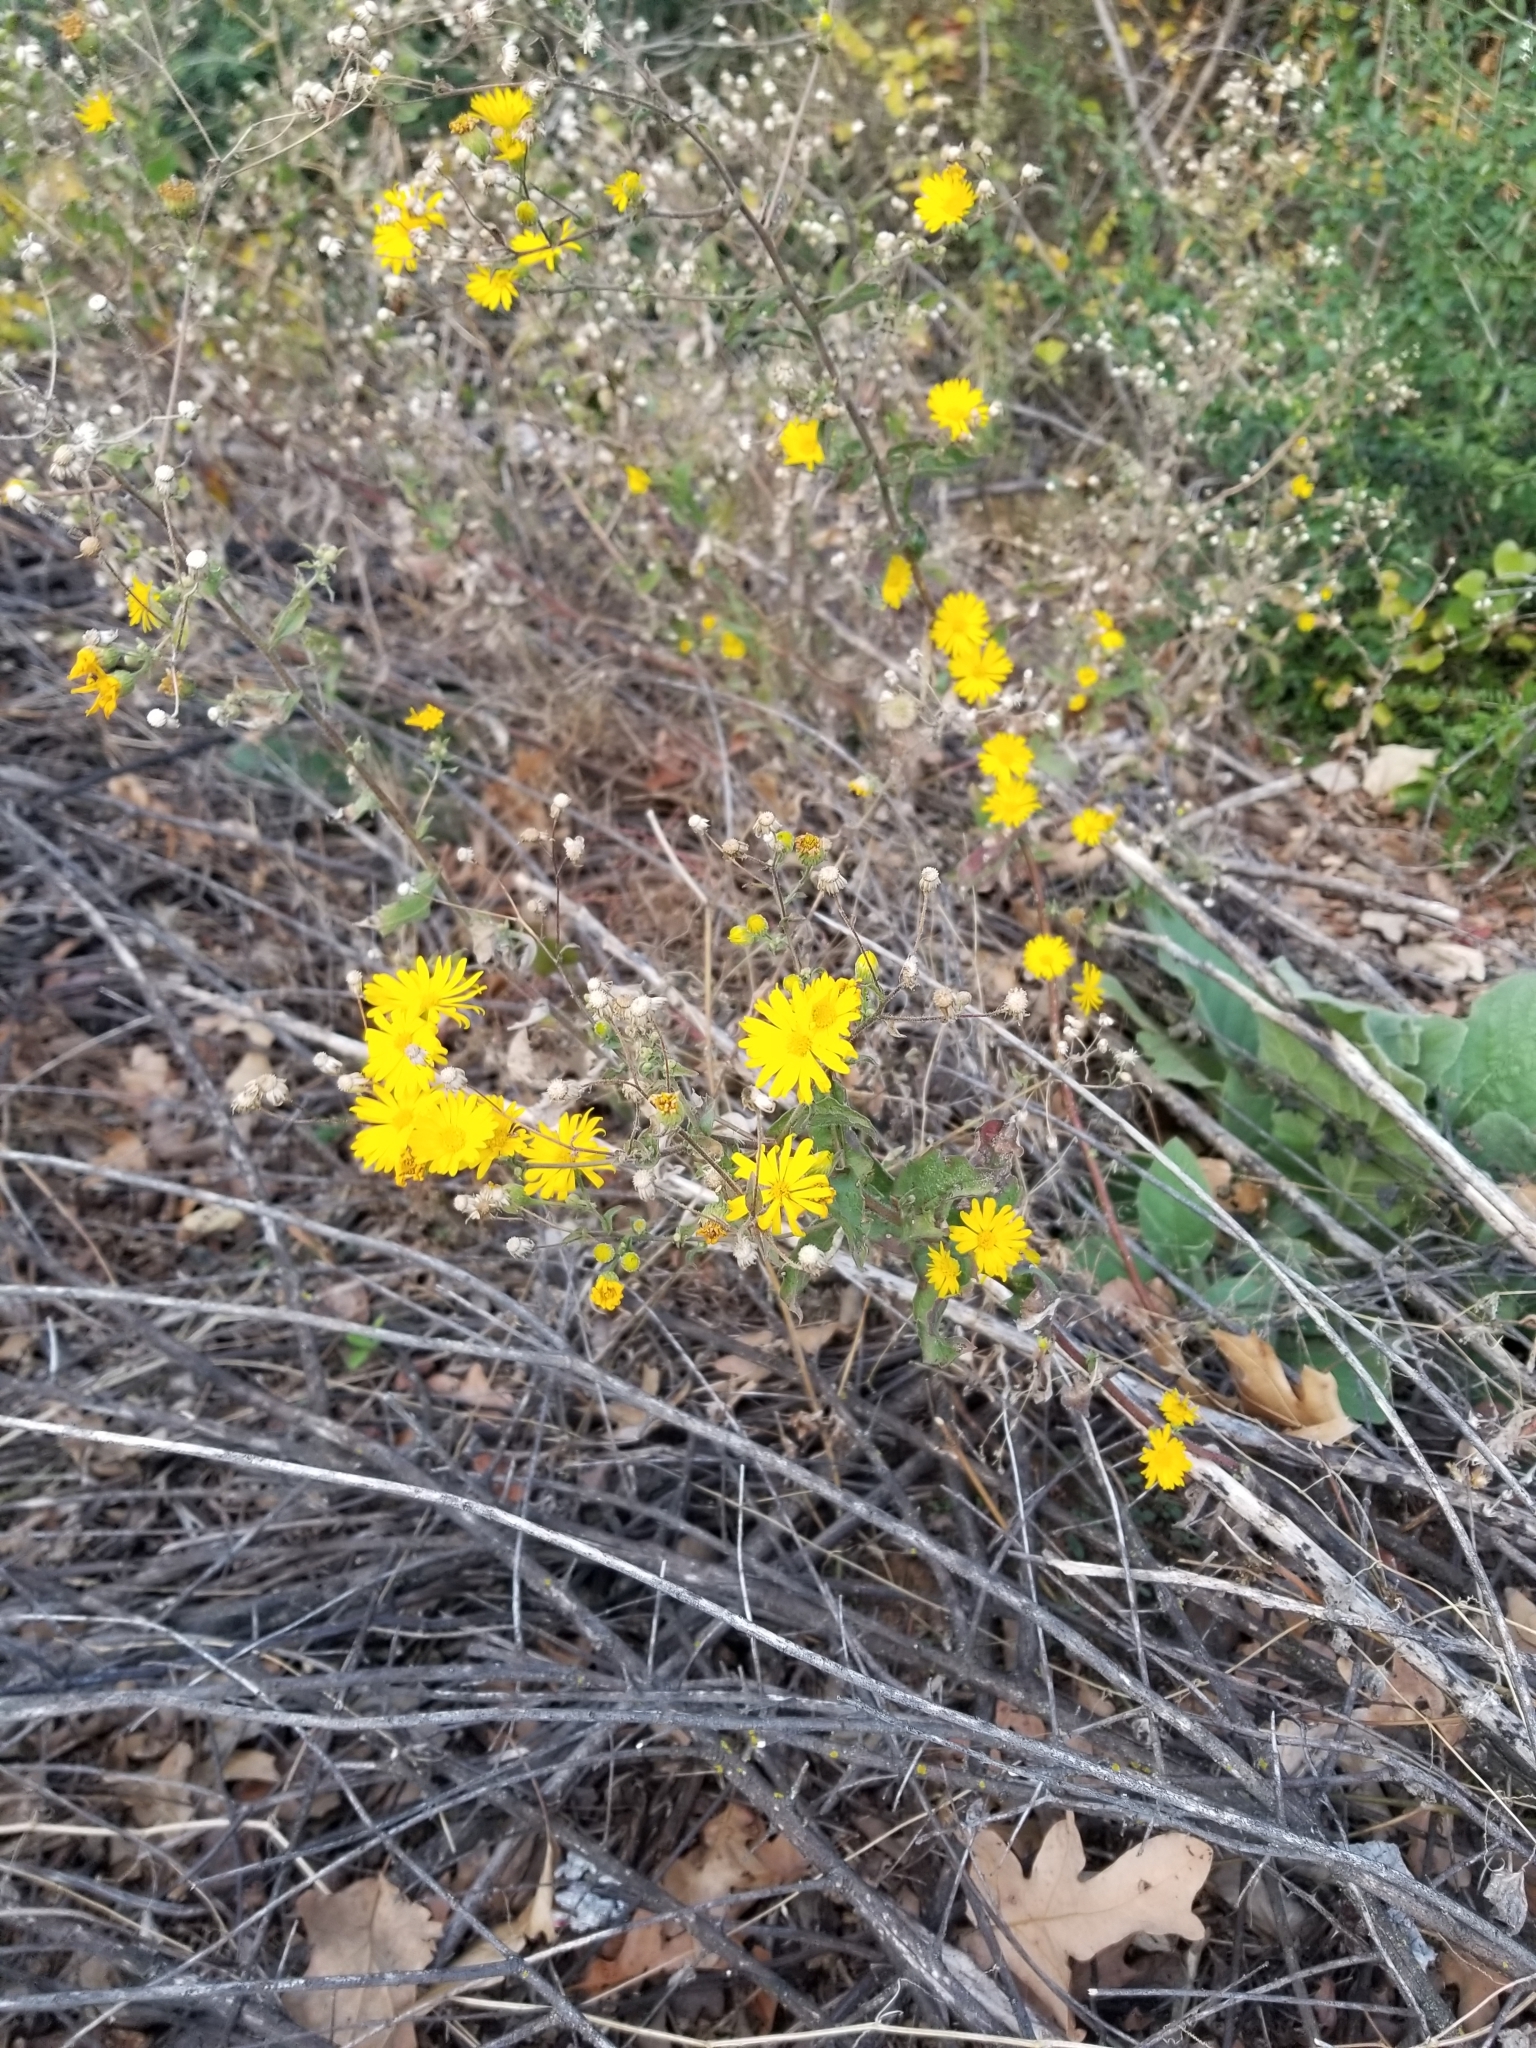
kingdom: Plantae
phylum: Tracheophyta
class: Magnoliopsida
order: Asterales
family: Asteraceae
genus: Heterotheca
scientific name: Heterotheca subaxillaris
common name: Camphorweed
